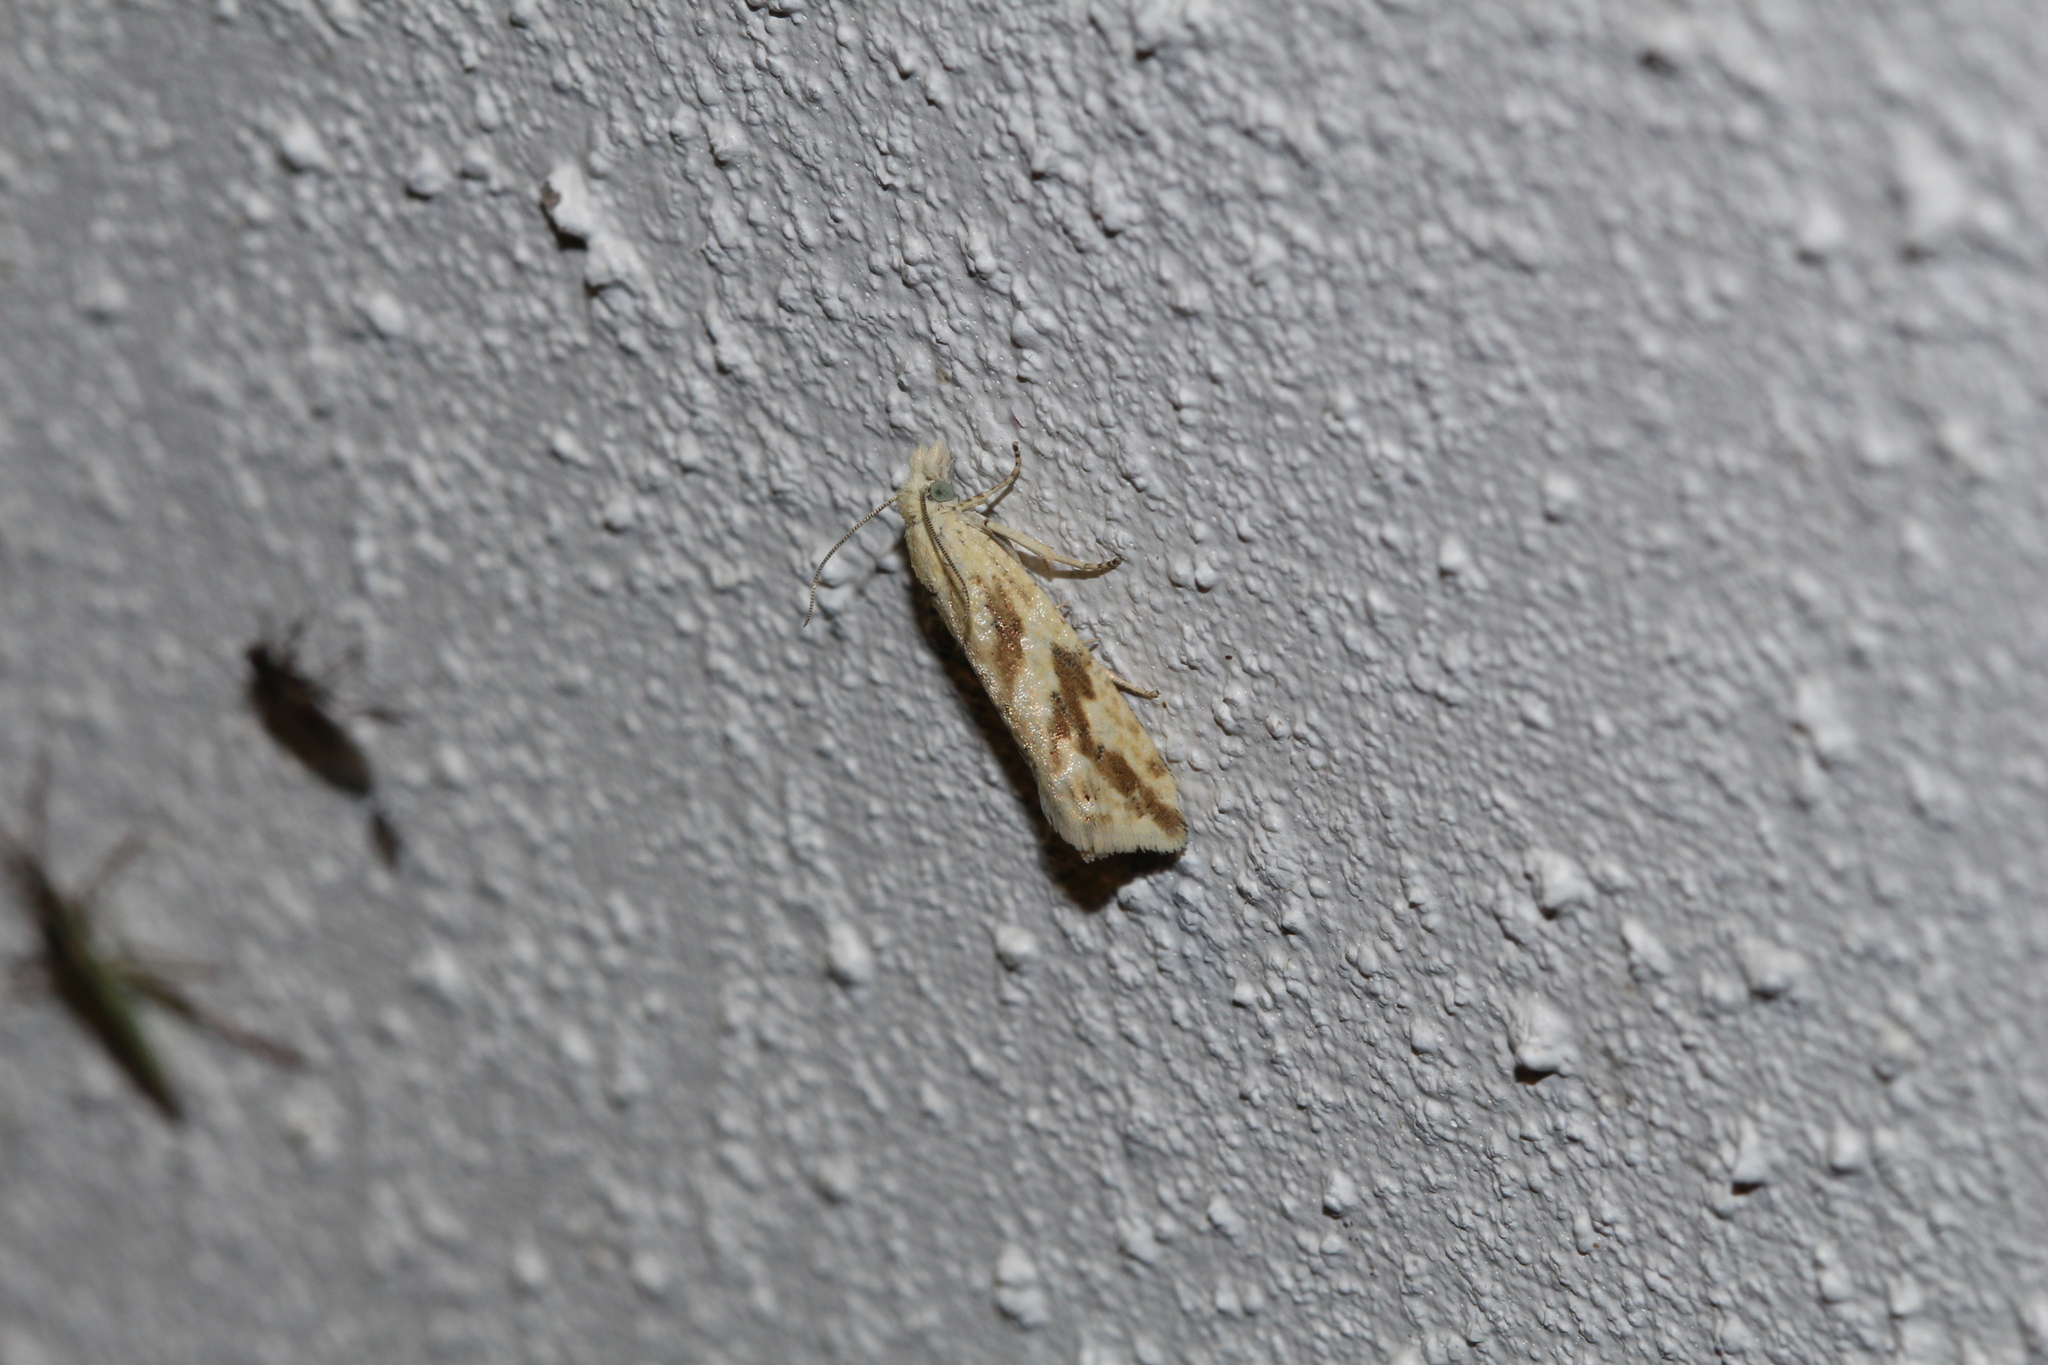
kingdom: Animalia
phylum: Arthropoda
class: Insecta
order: Lepidoptera
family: Tortricidae
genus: Thiodia
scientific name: Thiodia citrana
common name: Lemon bell
